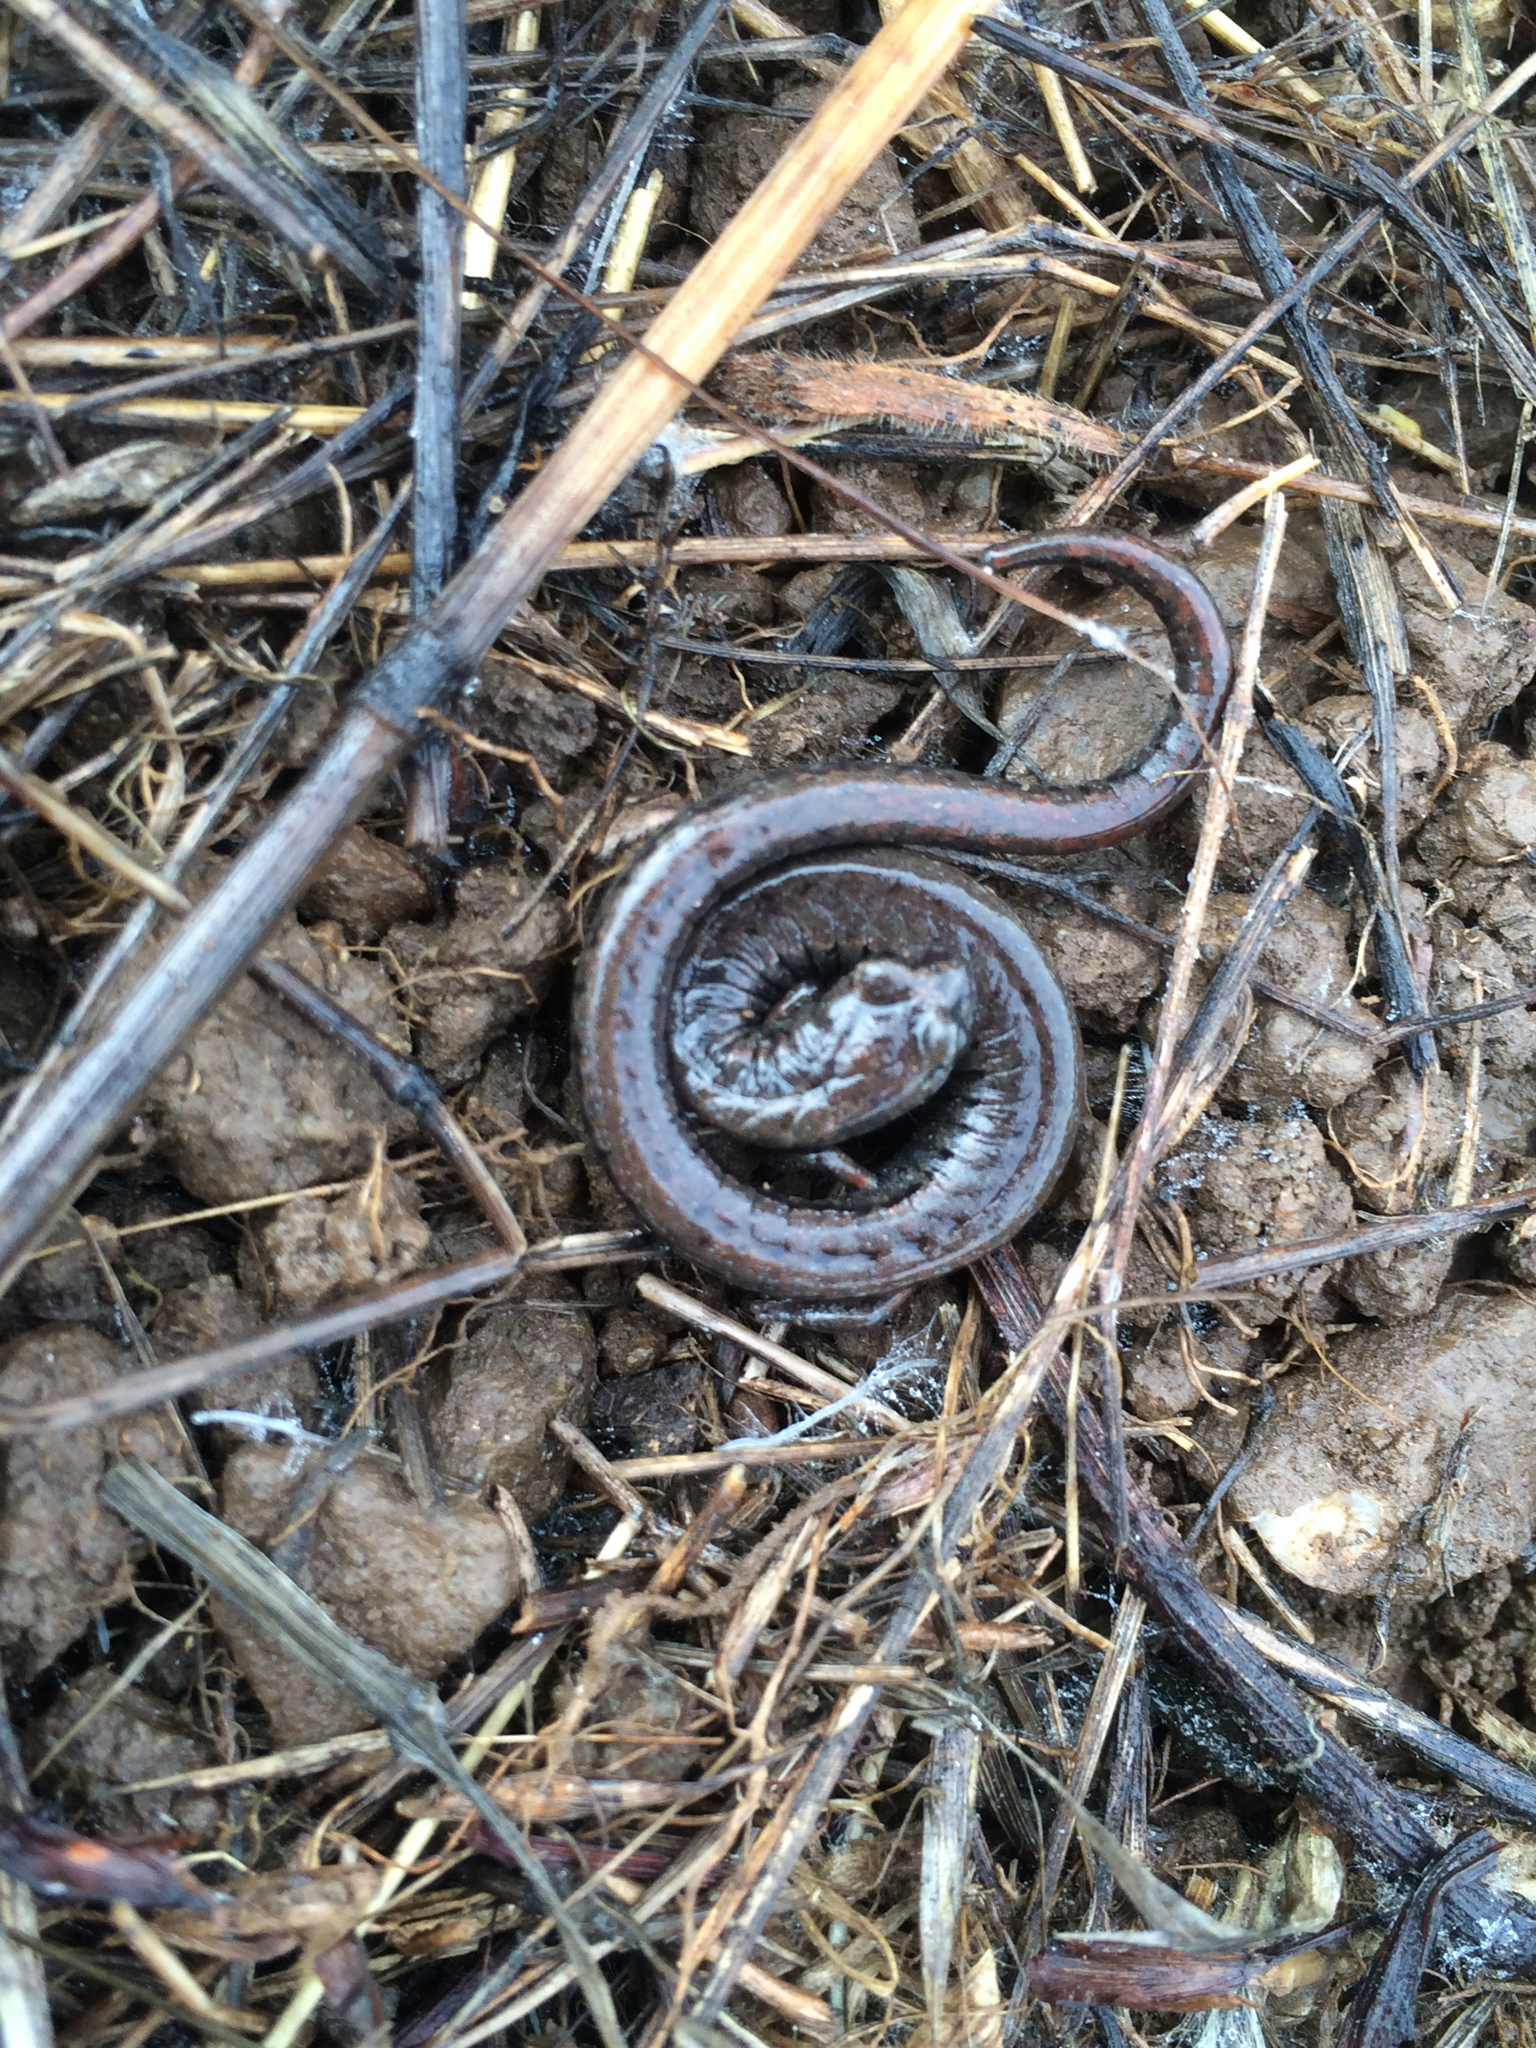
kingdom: Animalia
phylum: Chordata
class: Amphibia
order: Caudata
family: Plethodontidae
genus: Batrachoseps
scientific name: Batrachoseps attenuatus
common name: California slender salamander
